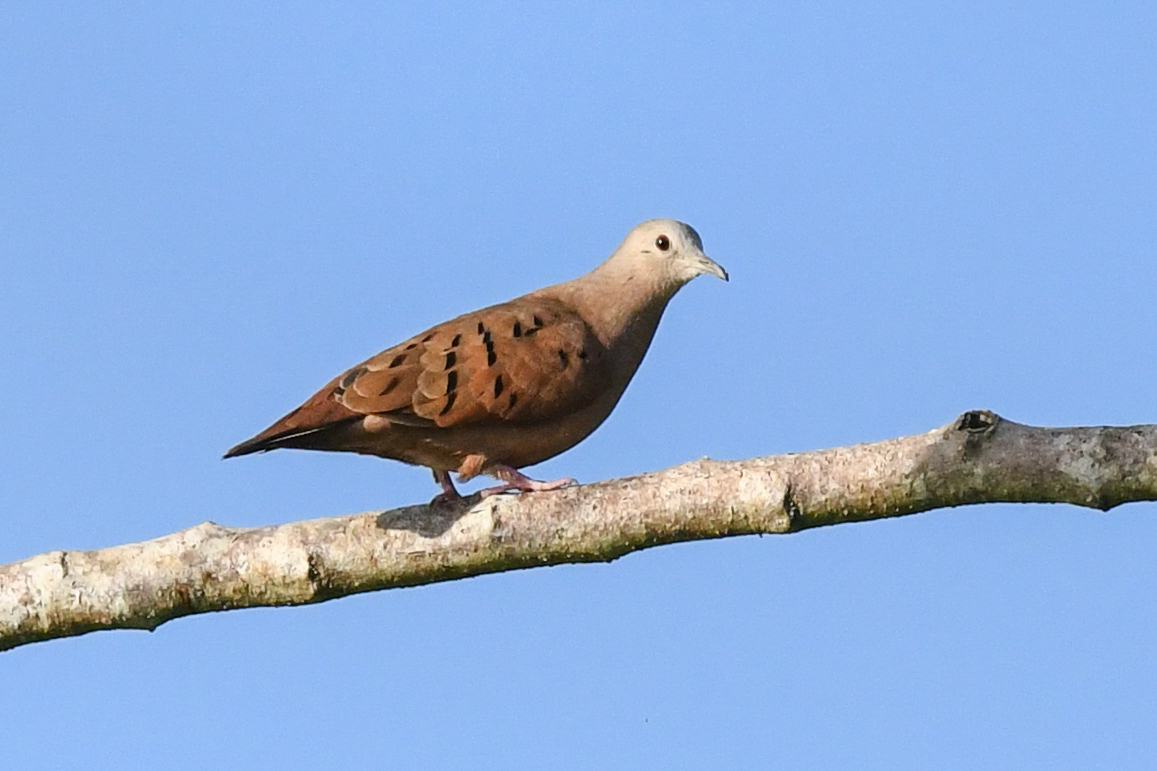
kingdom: Animalia
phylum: Chordata
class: Aves
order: Columbiformes
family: Columbidae
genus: Columbina
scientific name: Columbina talpacoti
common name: Ruddy ground dove
